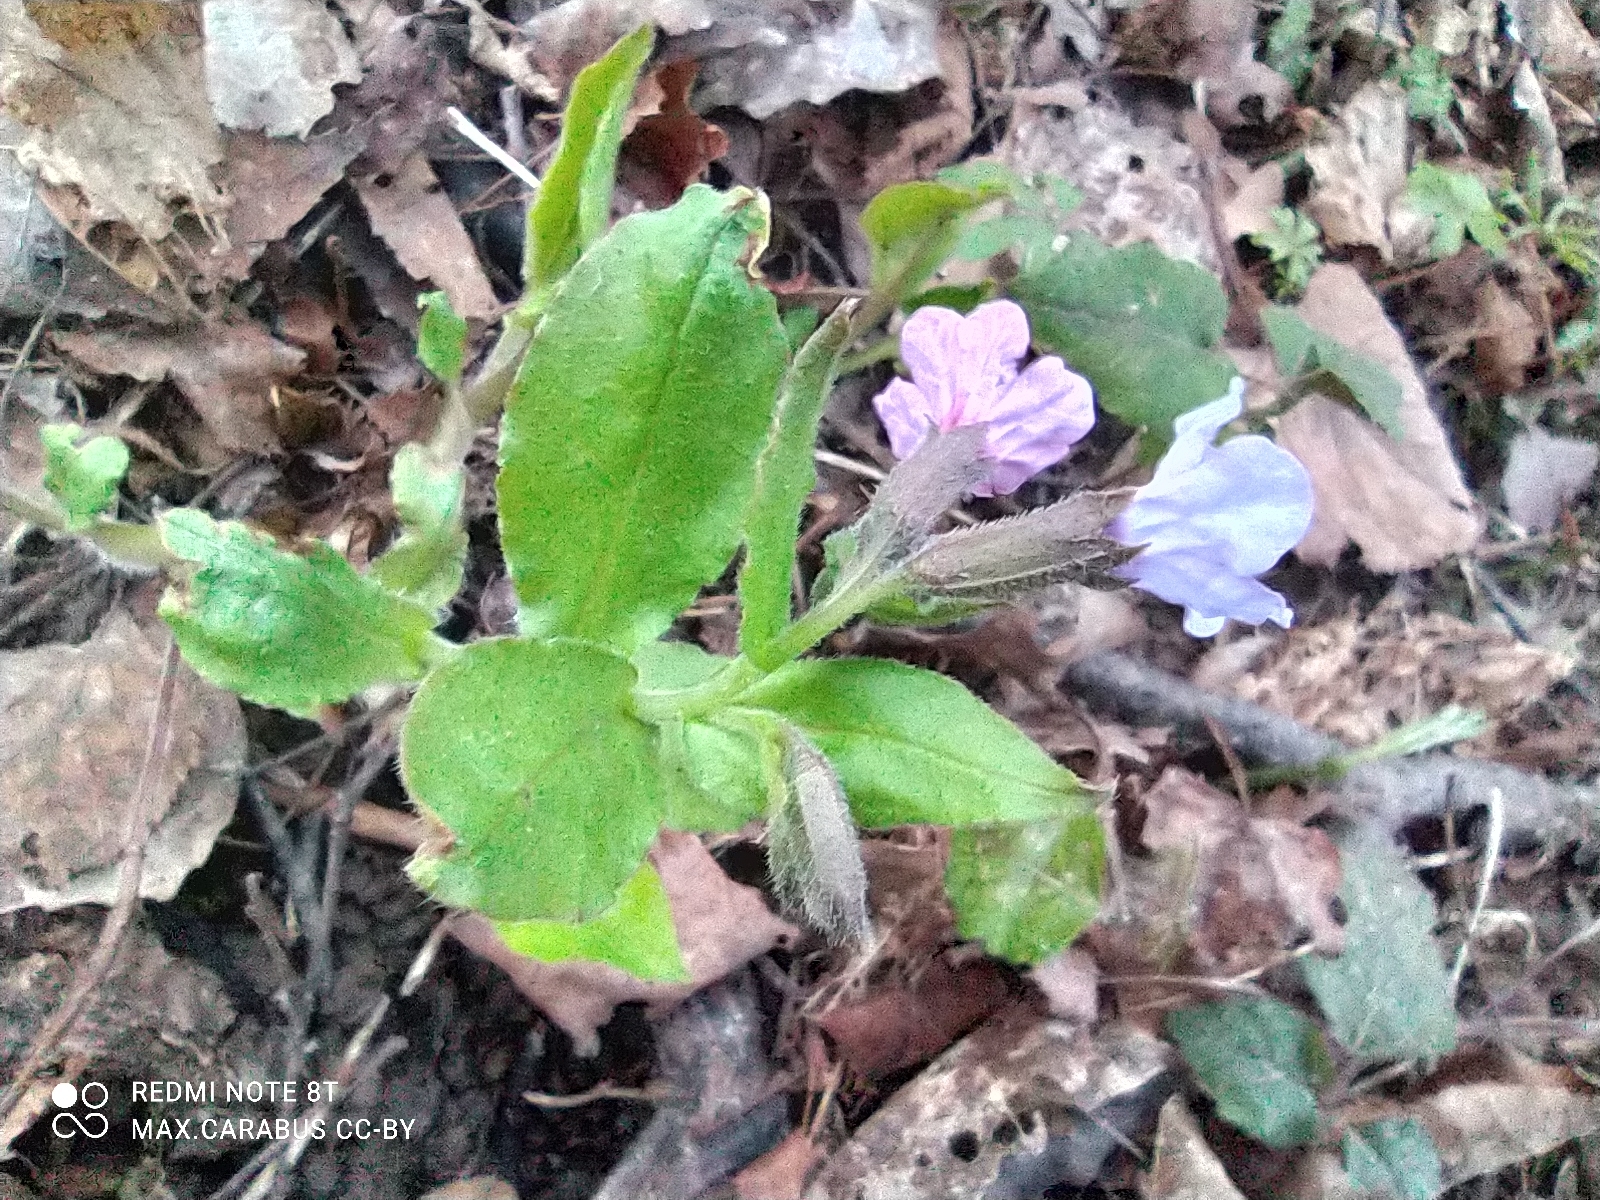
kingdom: Plantae
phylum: Tracheophyta
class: Magnoliopsida
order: Boraginales
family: Boraginaceae
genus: Pulmonaria
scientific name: Pulmonaria obscura
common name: Suffolk lungwort
